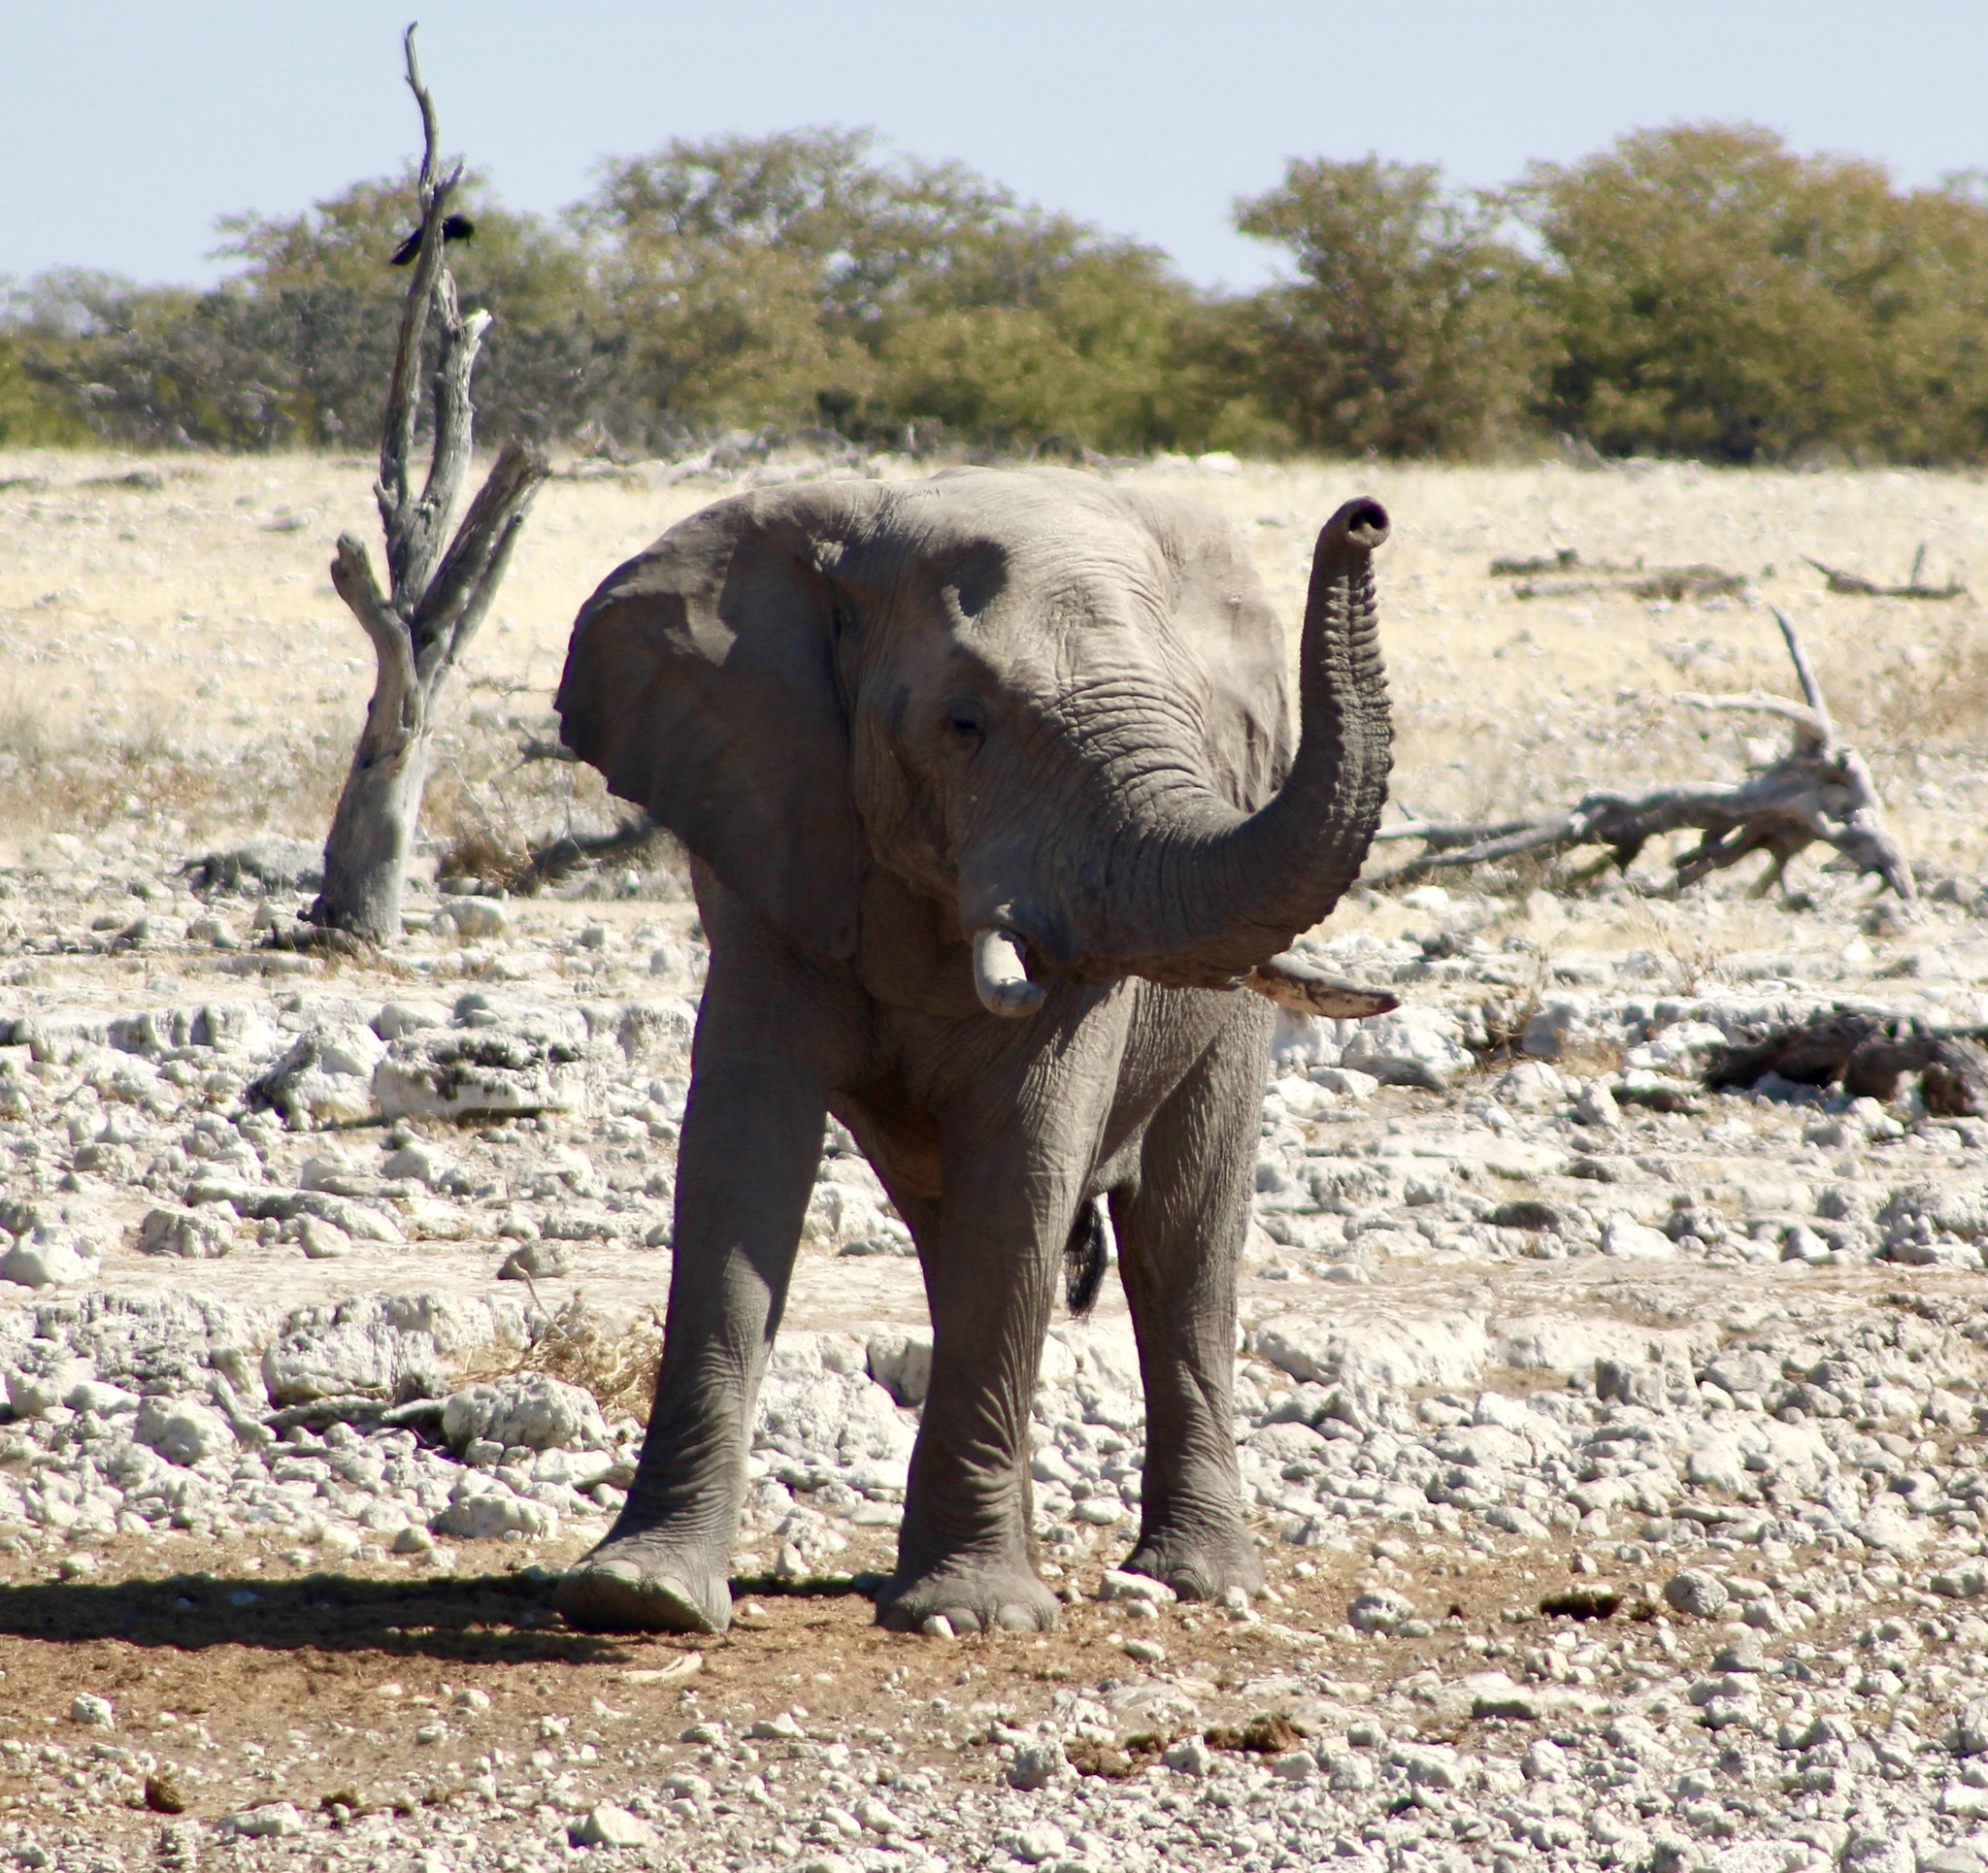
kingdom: Animalia
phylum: Chordata
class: Mammalia
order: Proboscidea
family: Elephantidae
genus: Loxodonta
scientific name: Loxodonta africana
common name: African elephant
